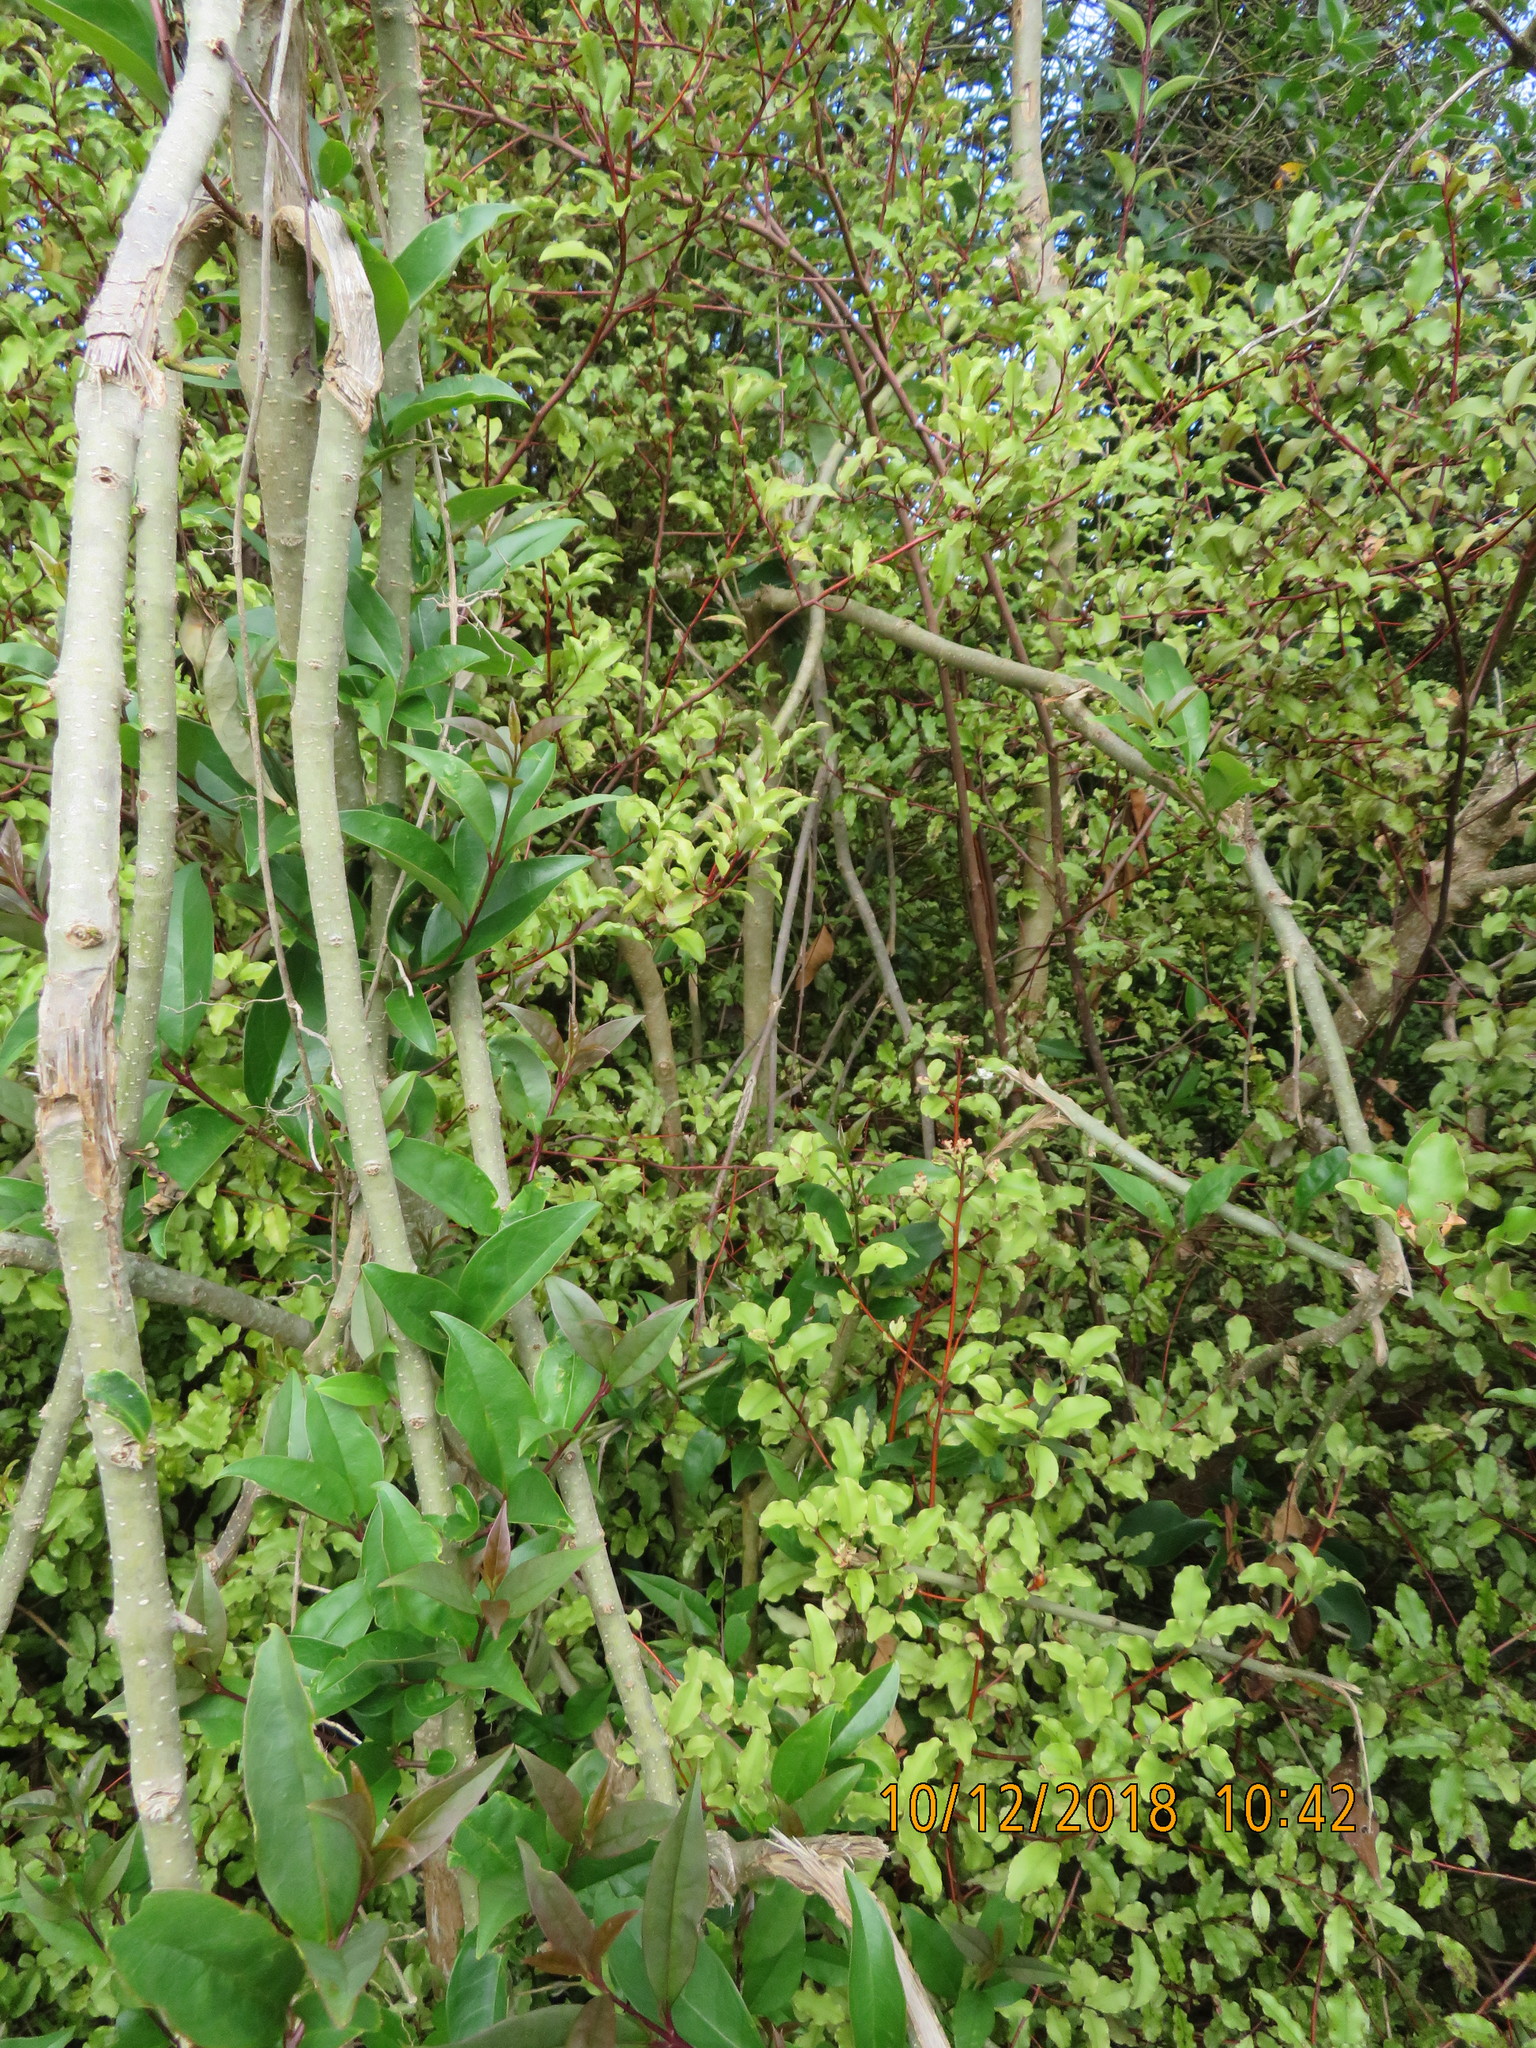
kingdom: Plantae
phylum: Tracheophyta
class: Magnoliopsida
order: Lamiales
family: Oleaceae
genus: Ligustrum
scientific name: Ligustrum lucidum
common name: Glossy privet
